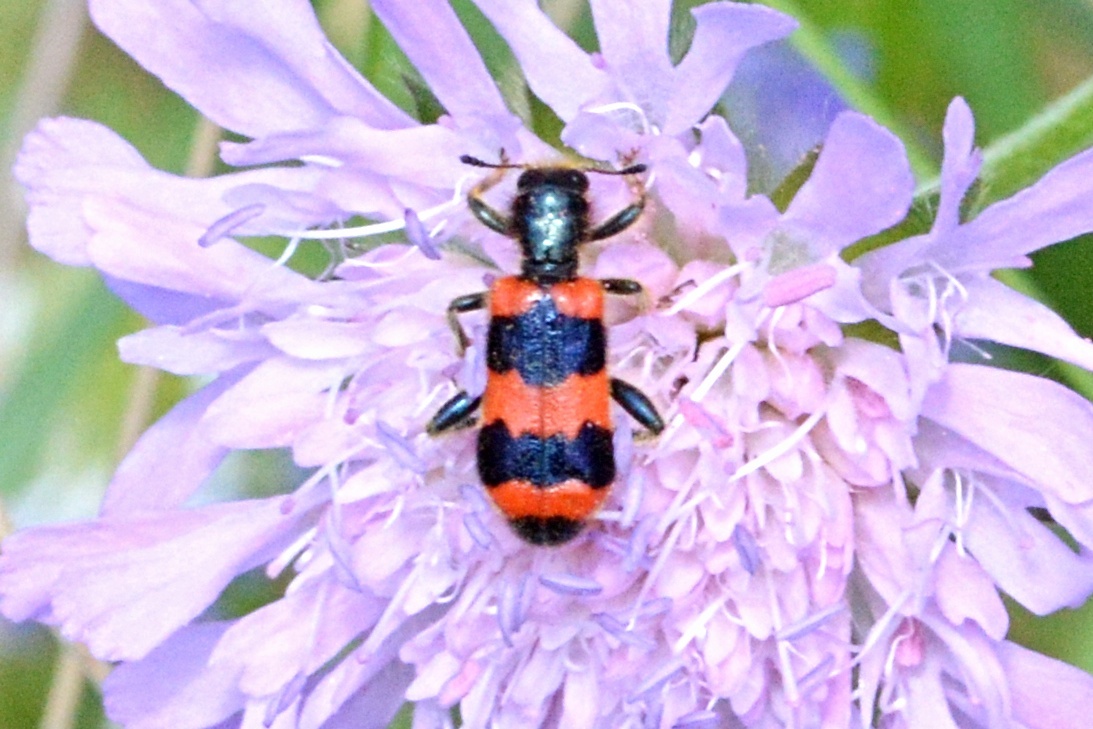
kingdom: Animalia
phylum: Arthropoda
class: Insecta
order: Coleoptera
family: Cleridae
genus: Trichodes
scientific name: Trichodes apiarius
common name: Bee-eating beetle
